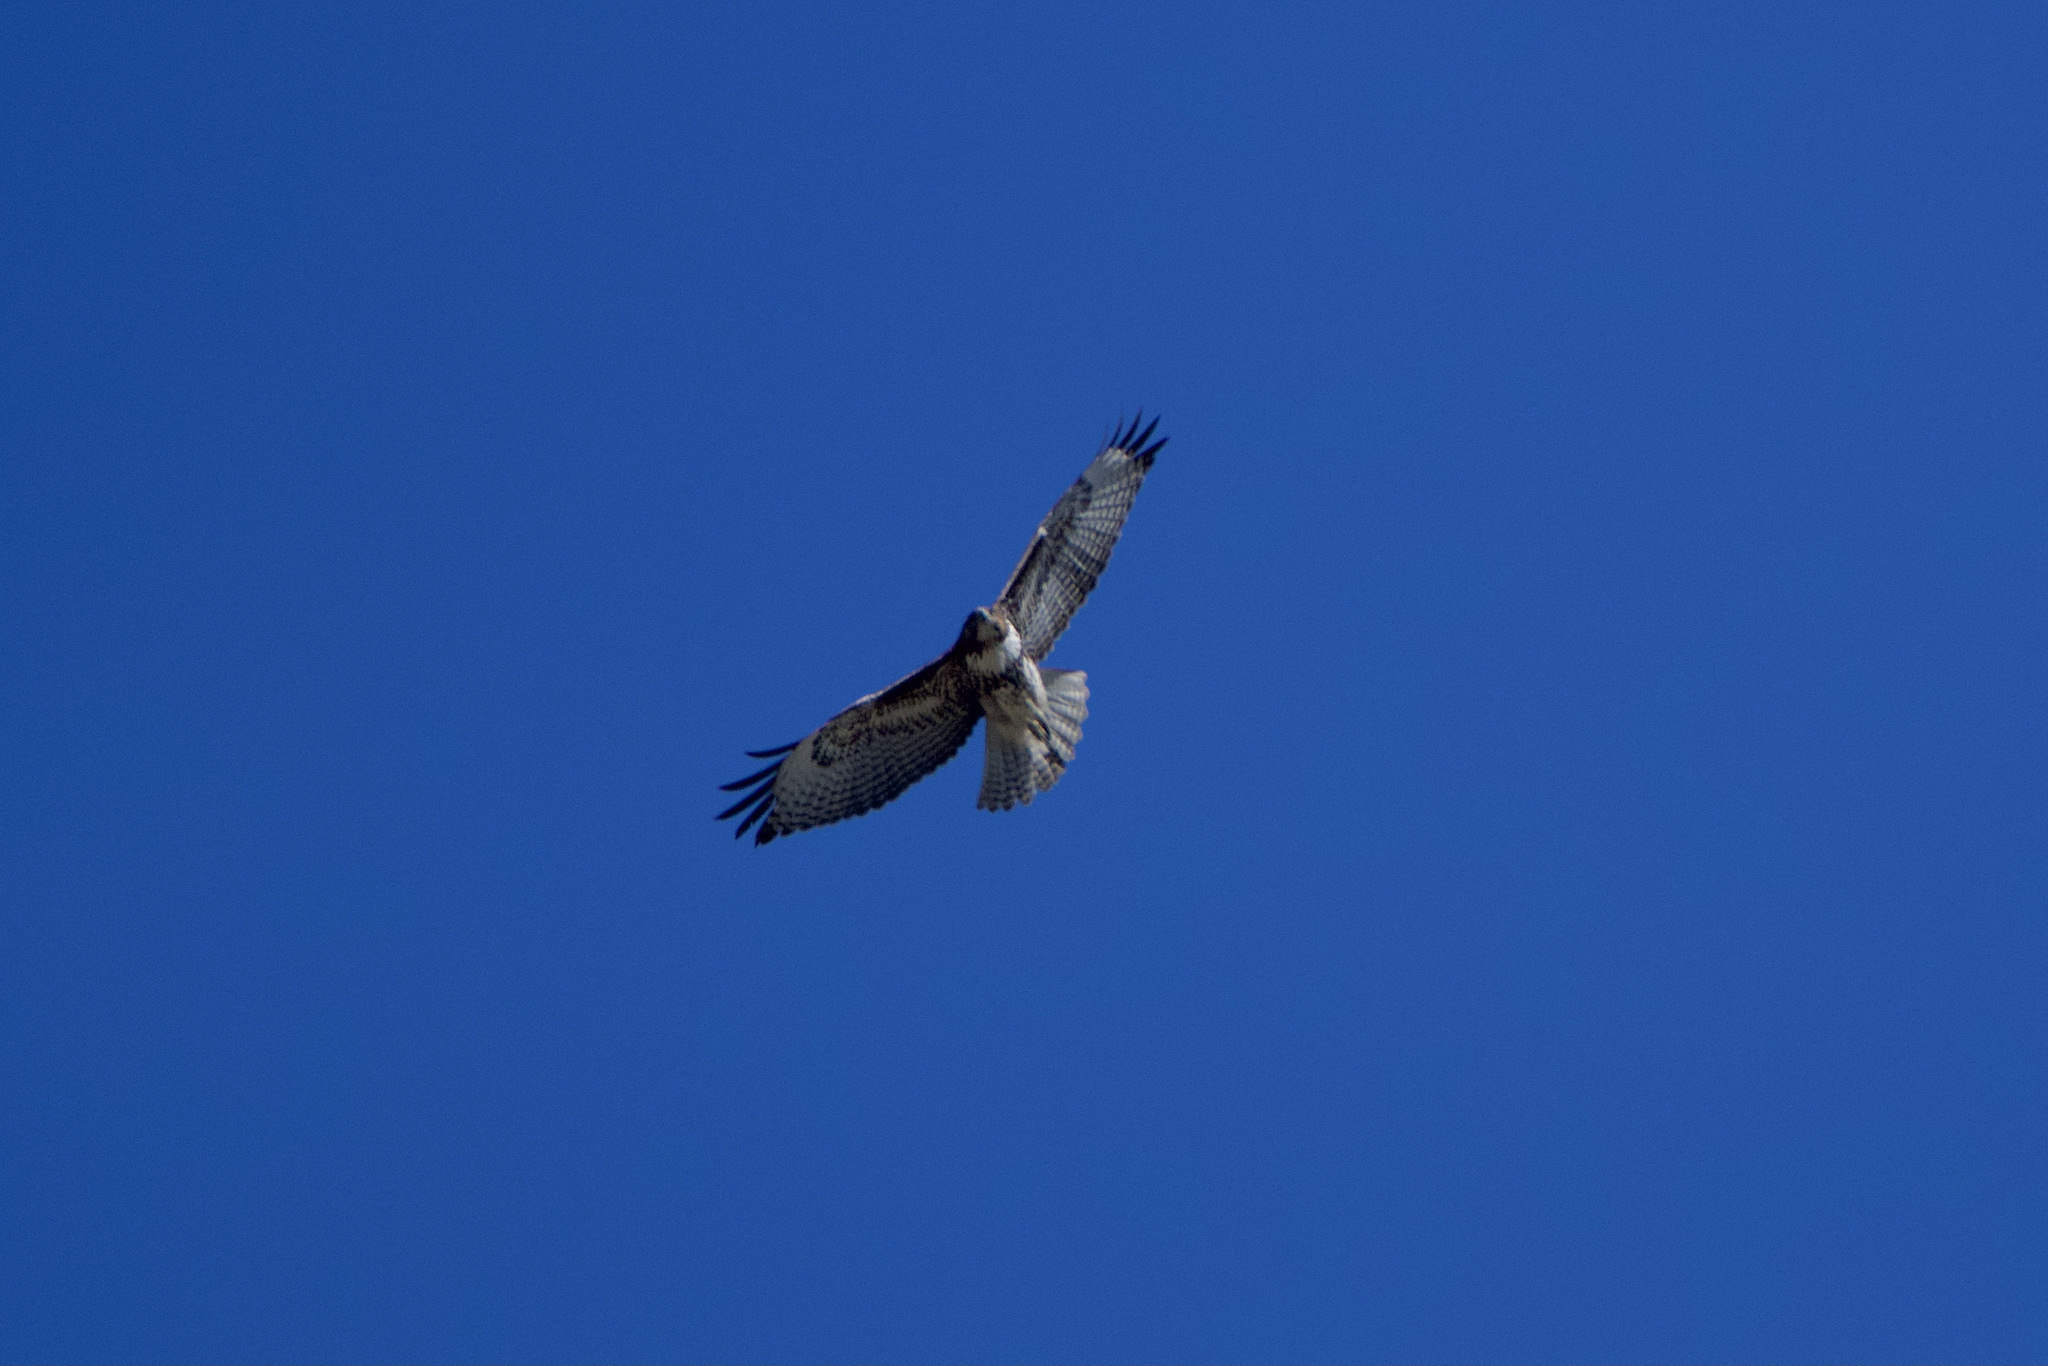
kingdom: Animalia
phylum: Chordata
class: Aves
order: Accipitriformes
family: Accipitridae
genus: Buteo
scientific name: Buteo jamaicensis
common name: Red-tailed hawk
